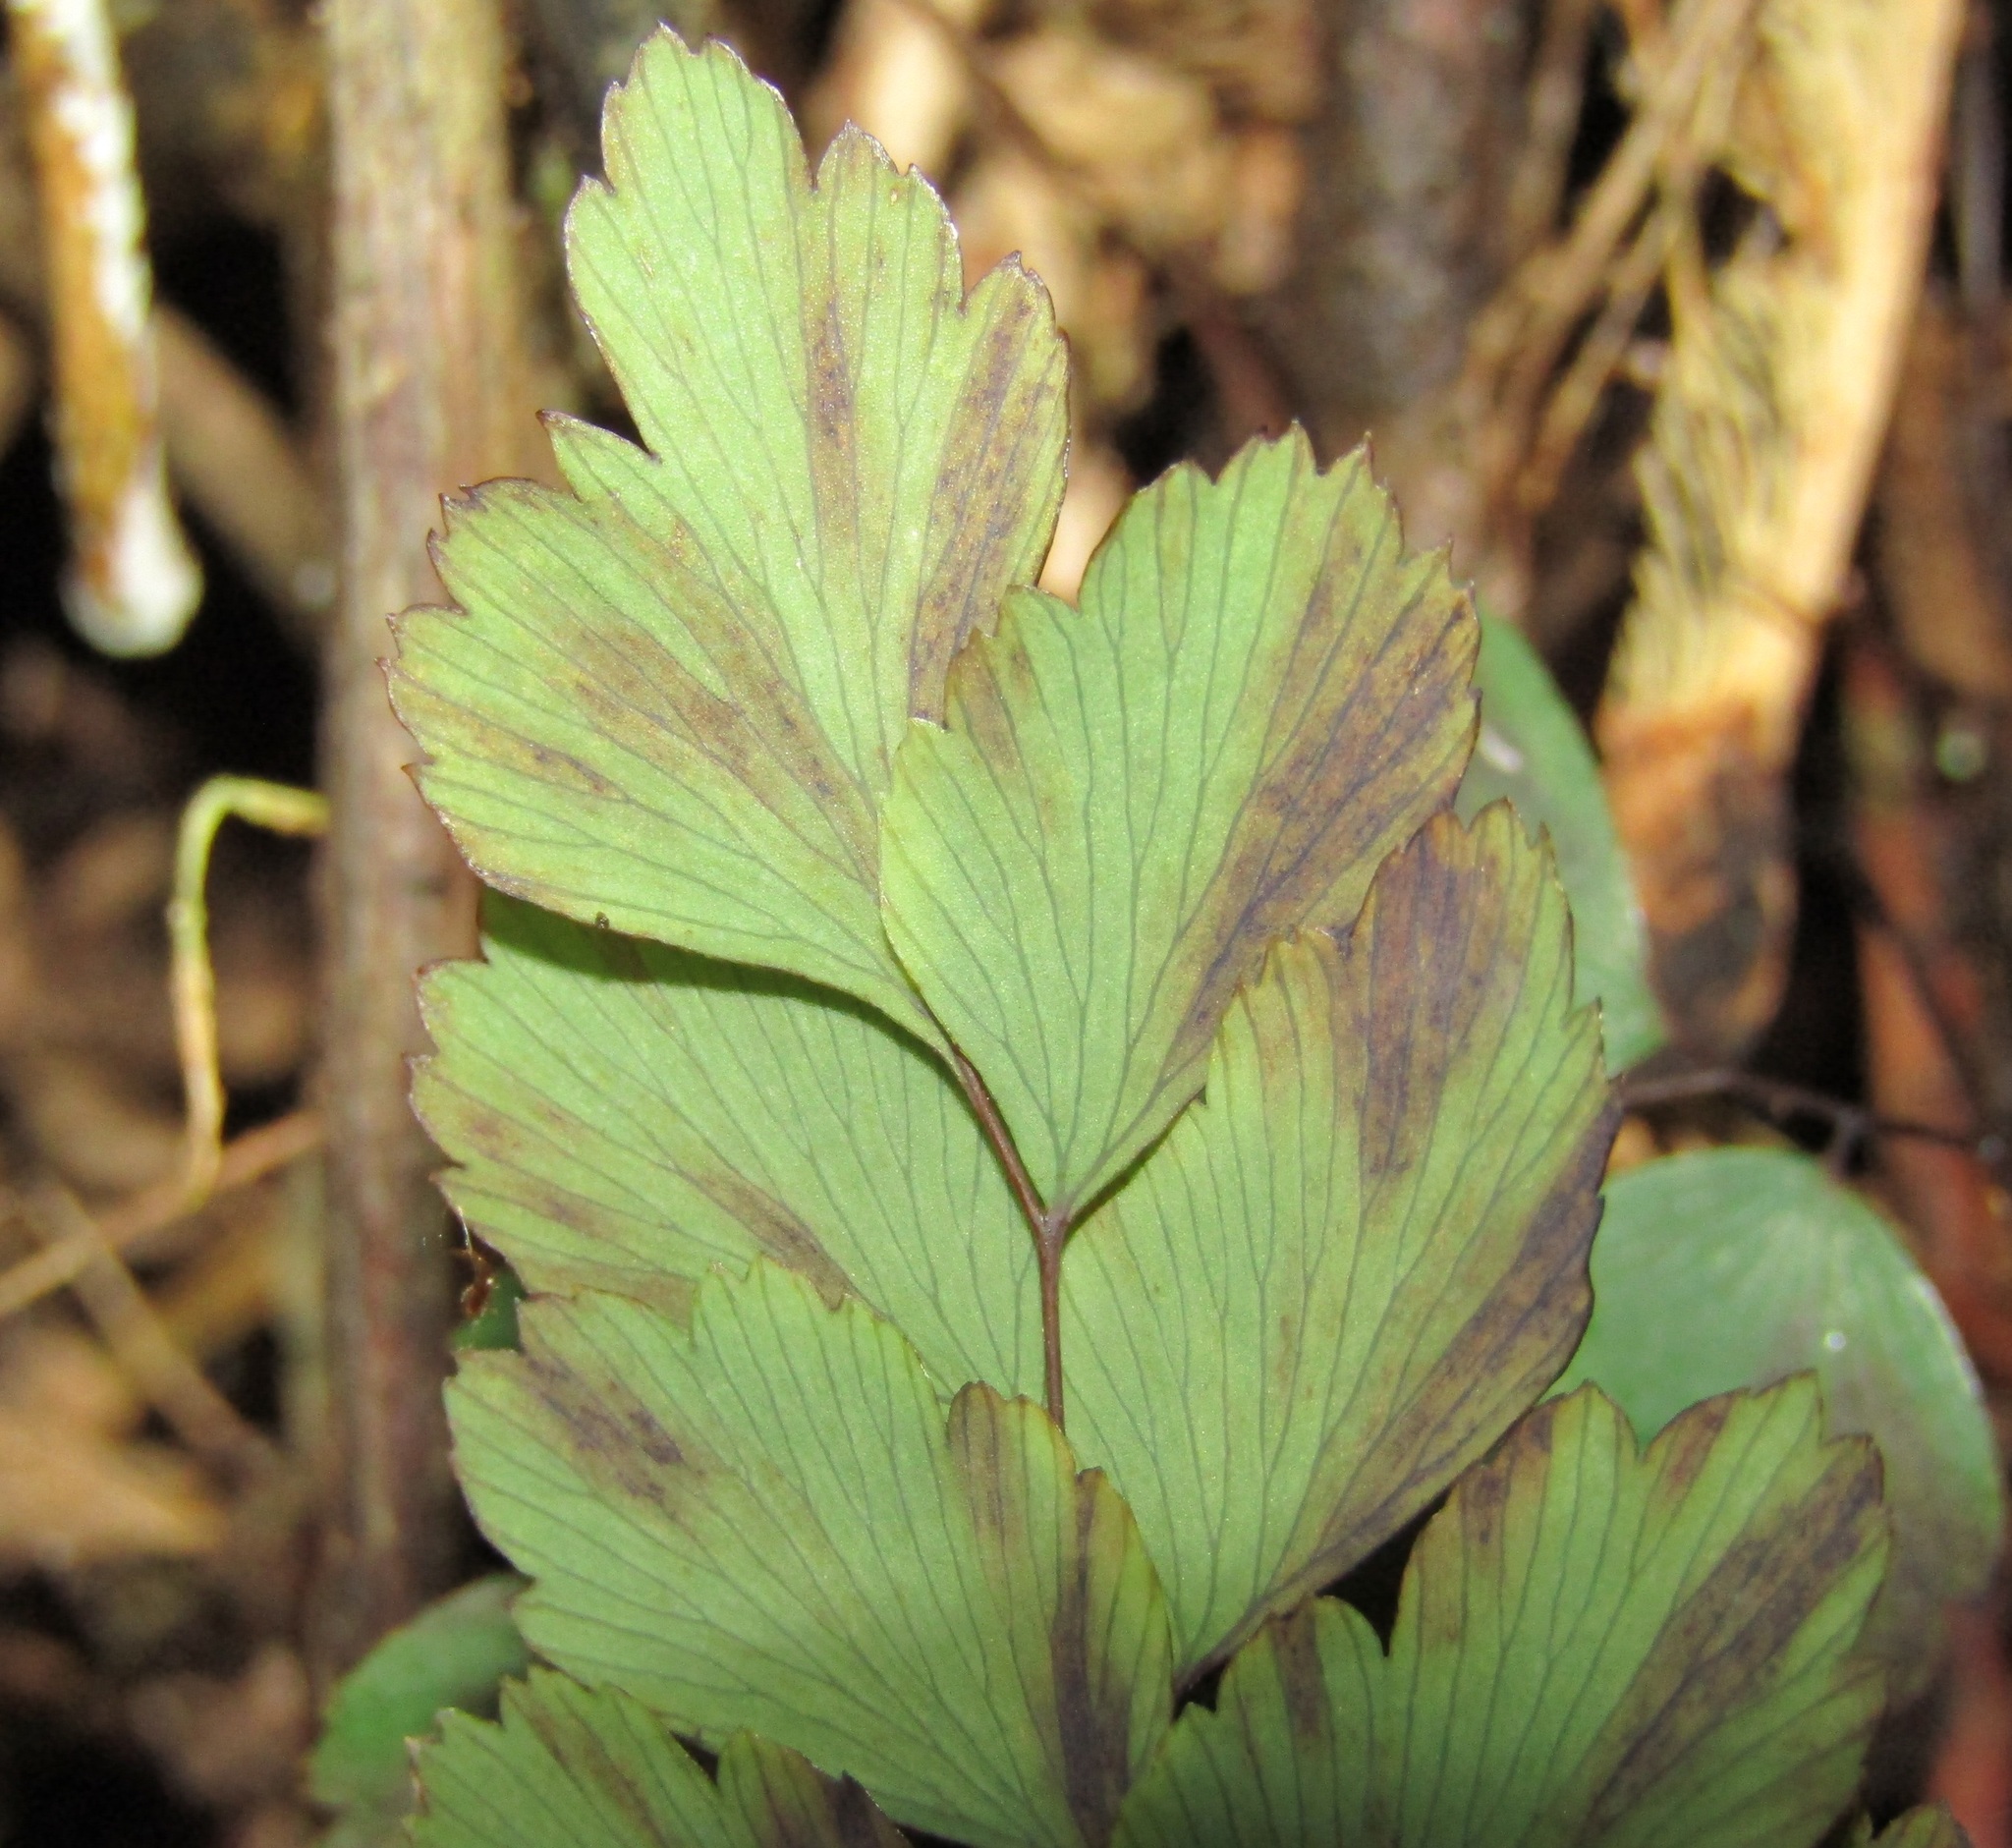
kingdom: Plantae
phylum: Tracheophyta
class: Polypodiopsida
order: Polypodiales
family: Pteridaceae
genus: Adiantum
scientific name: Adiantum cunninghamii
